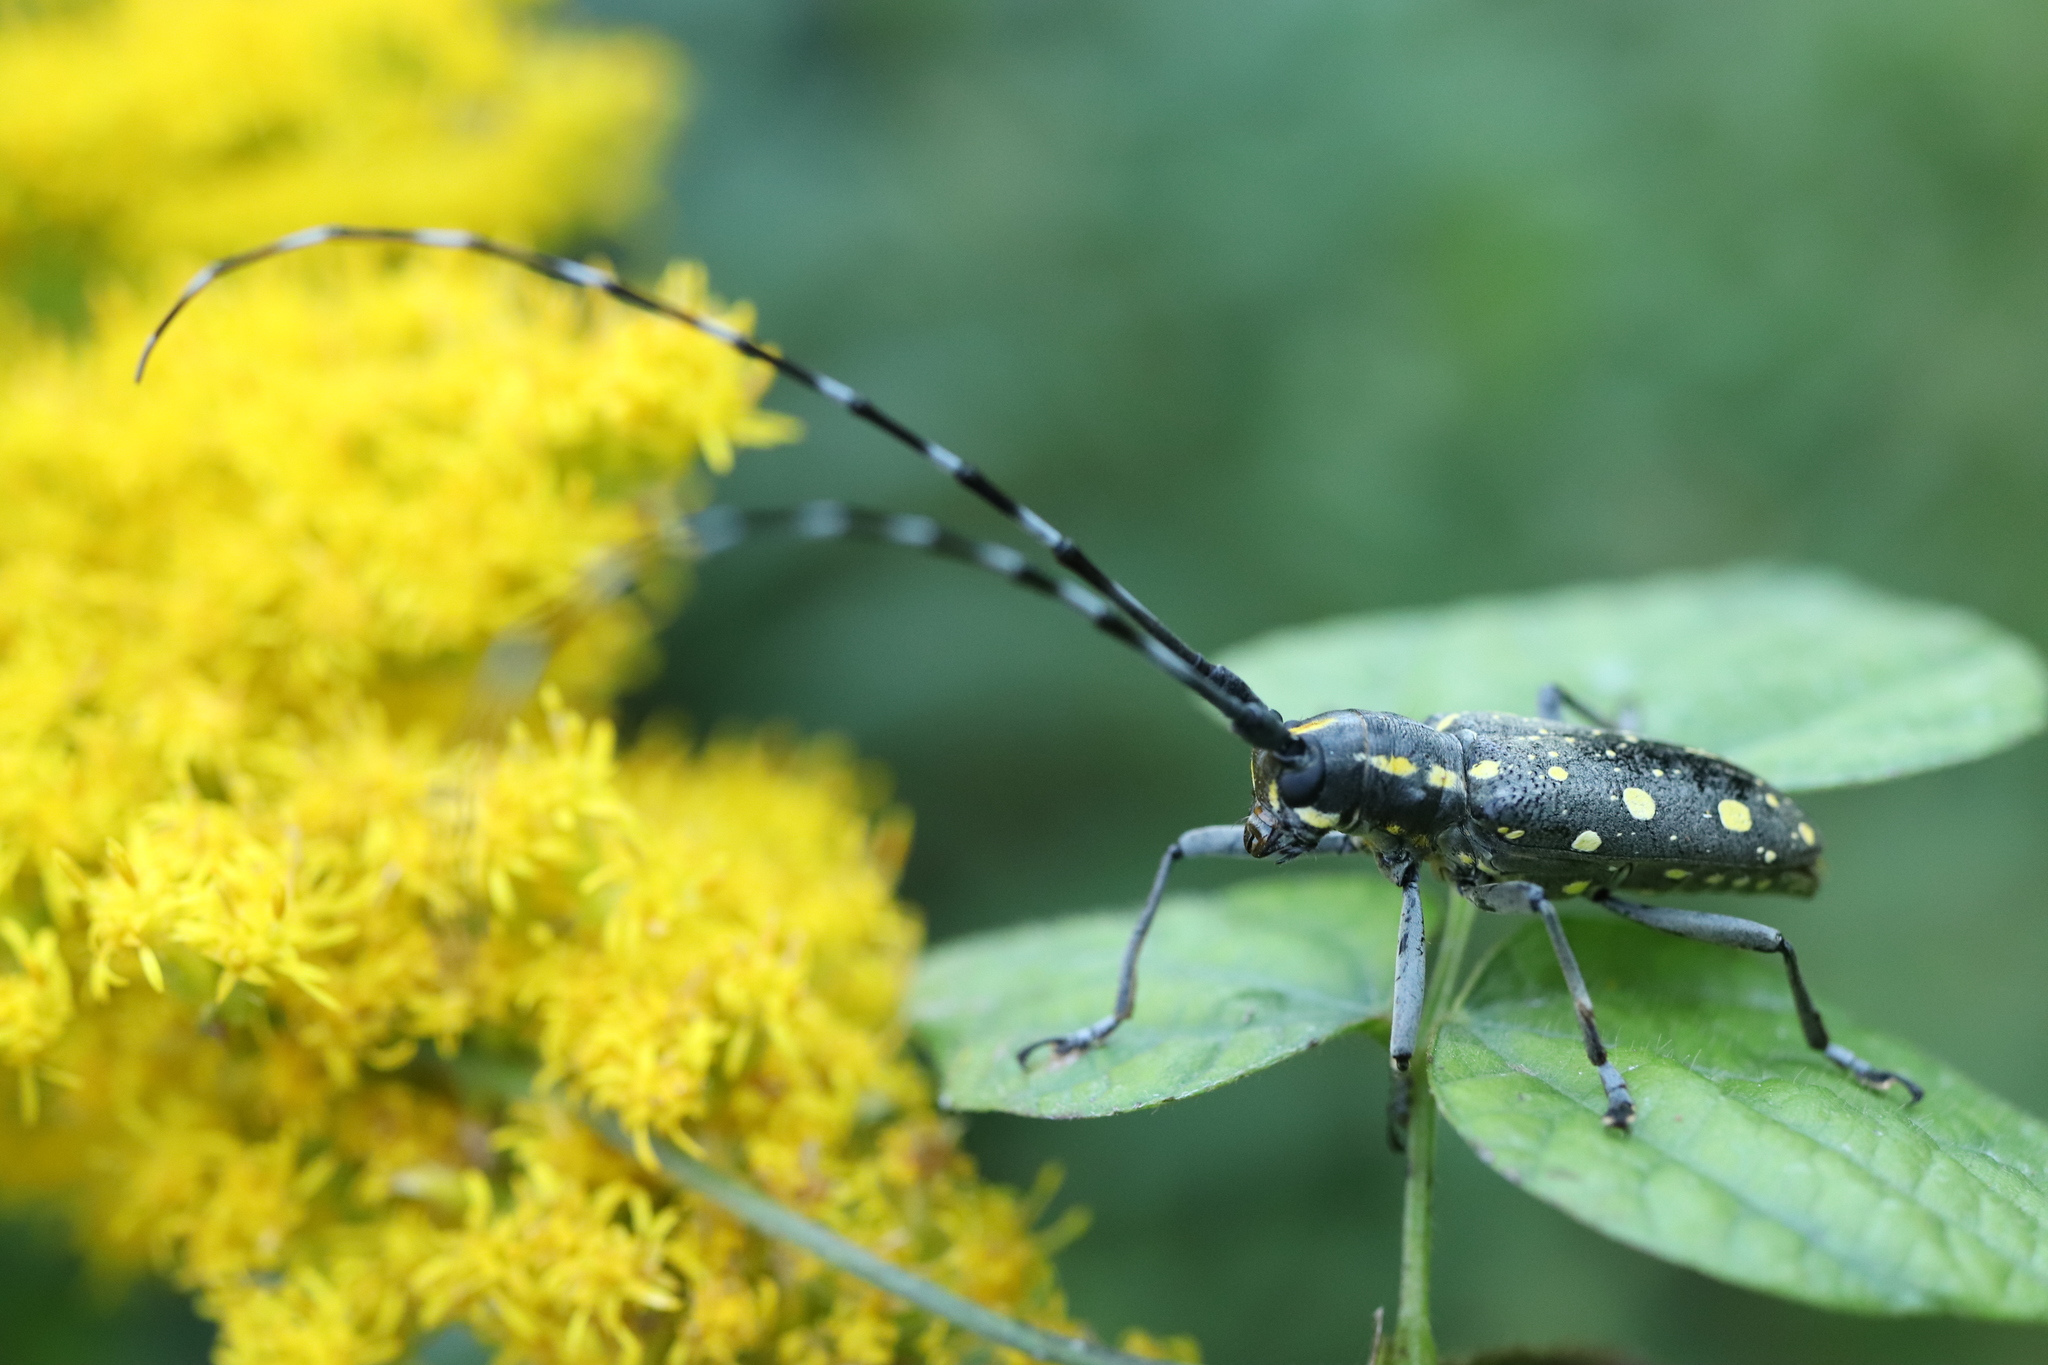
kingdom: Animalia
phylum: Arthropoda
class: Insecta
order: Coleoptera
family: Cerambycidae
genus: Psacothea
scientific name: Psacothea hilaris
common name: Yellow-spotted longicorn beetle
